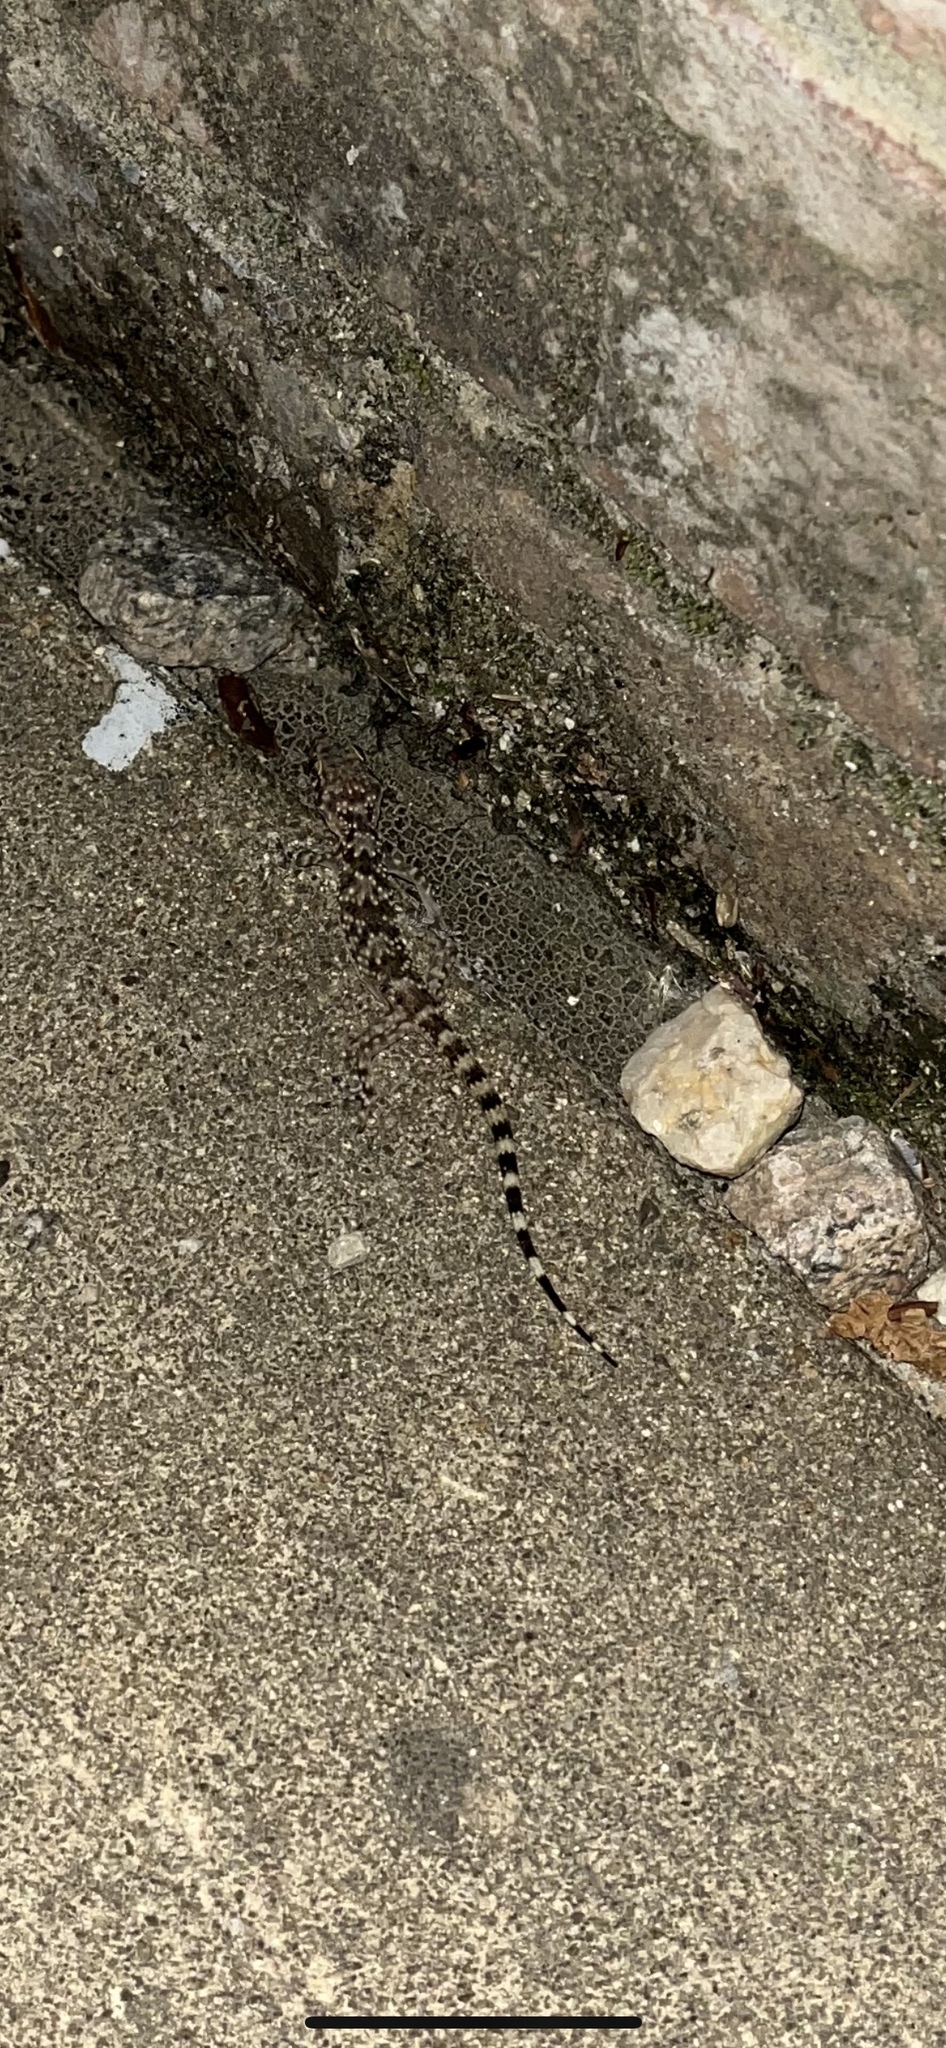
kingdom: Animalia
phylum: Chordata
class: Squamata
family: Gekkonidae
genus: Hemidactylus
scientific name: Hemidactylus turcicus
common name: Turkish gecko
